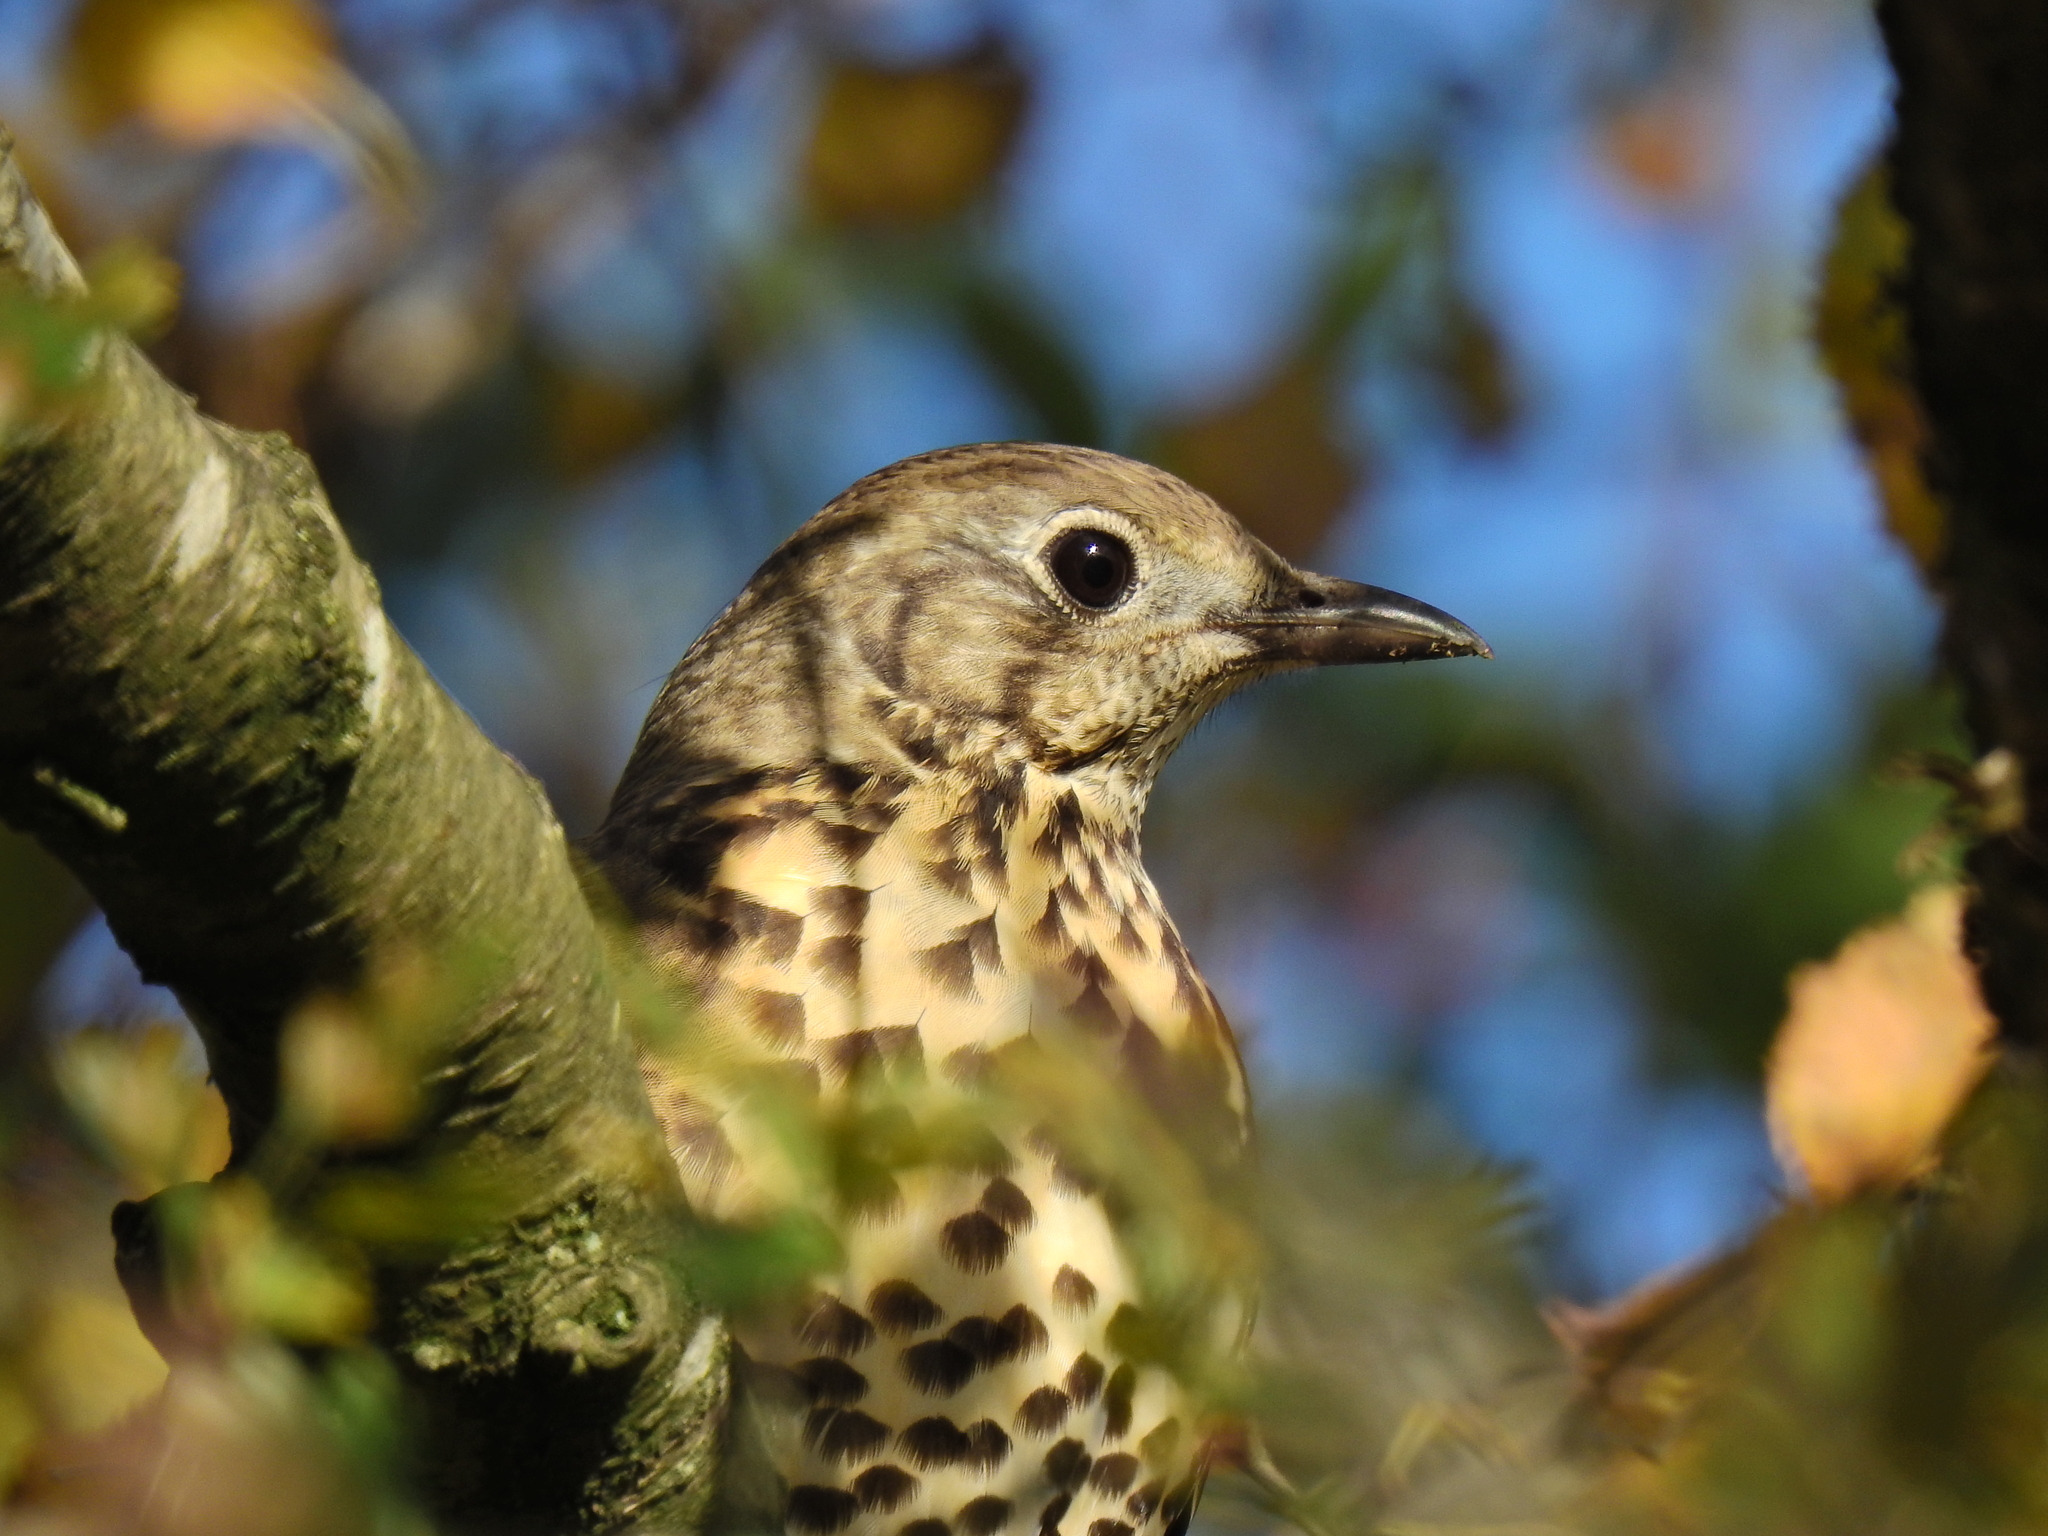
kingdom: Animalia
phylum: Chordata
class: Aves
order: Passeriformes
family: Turdidae
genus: Turdus
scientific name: Turdus viscivorus
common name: Mistle thrush
